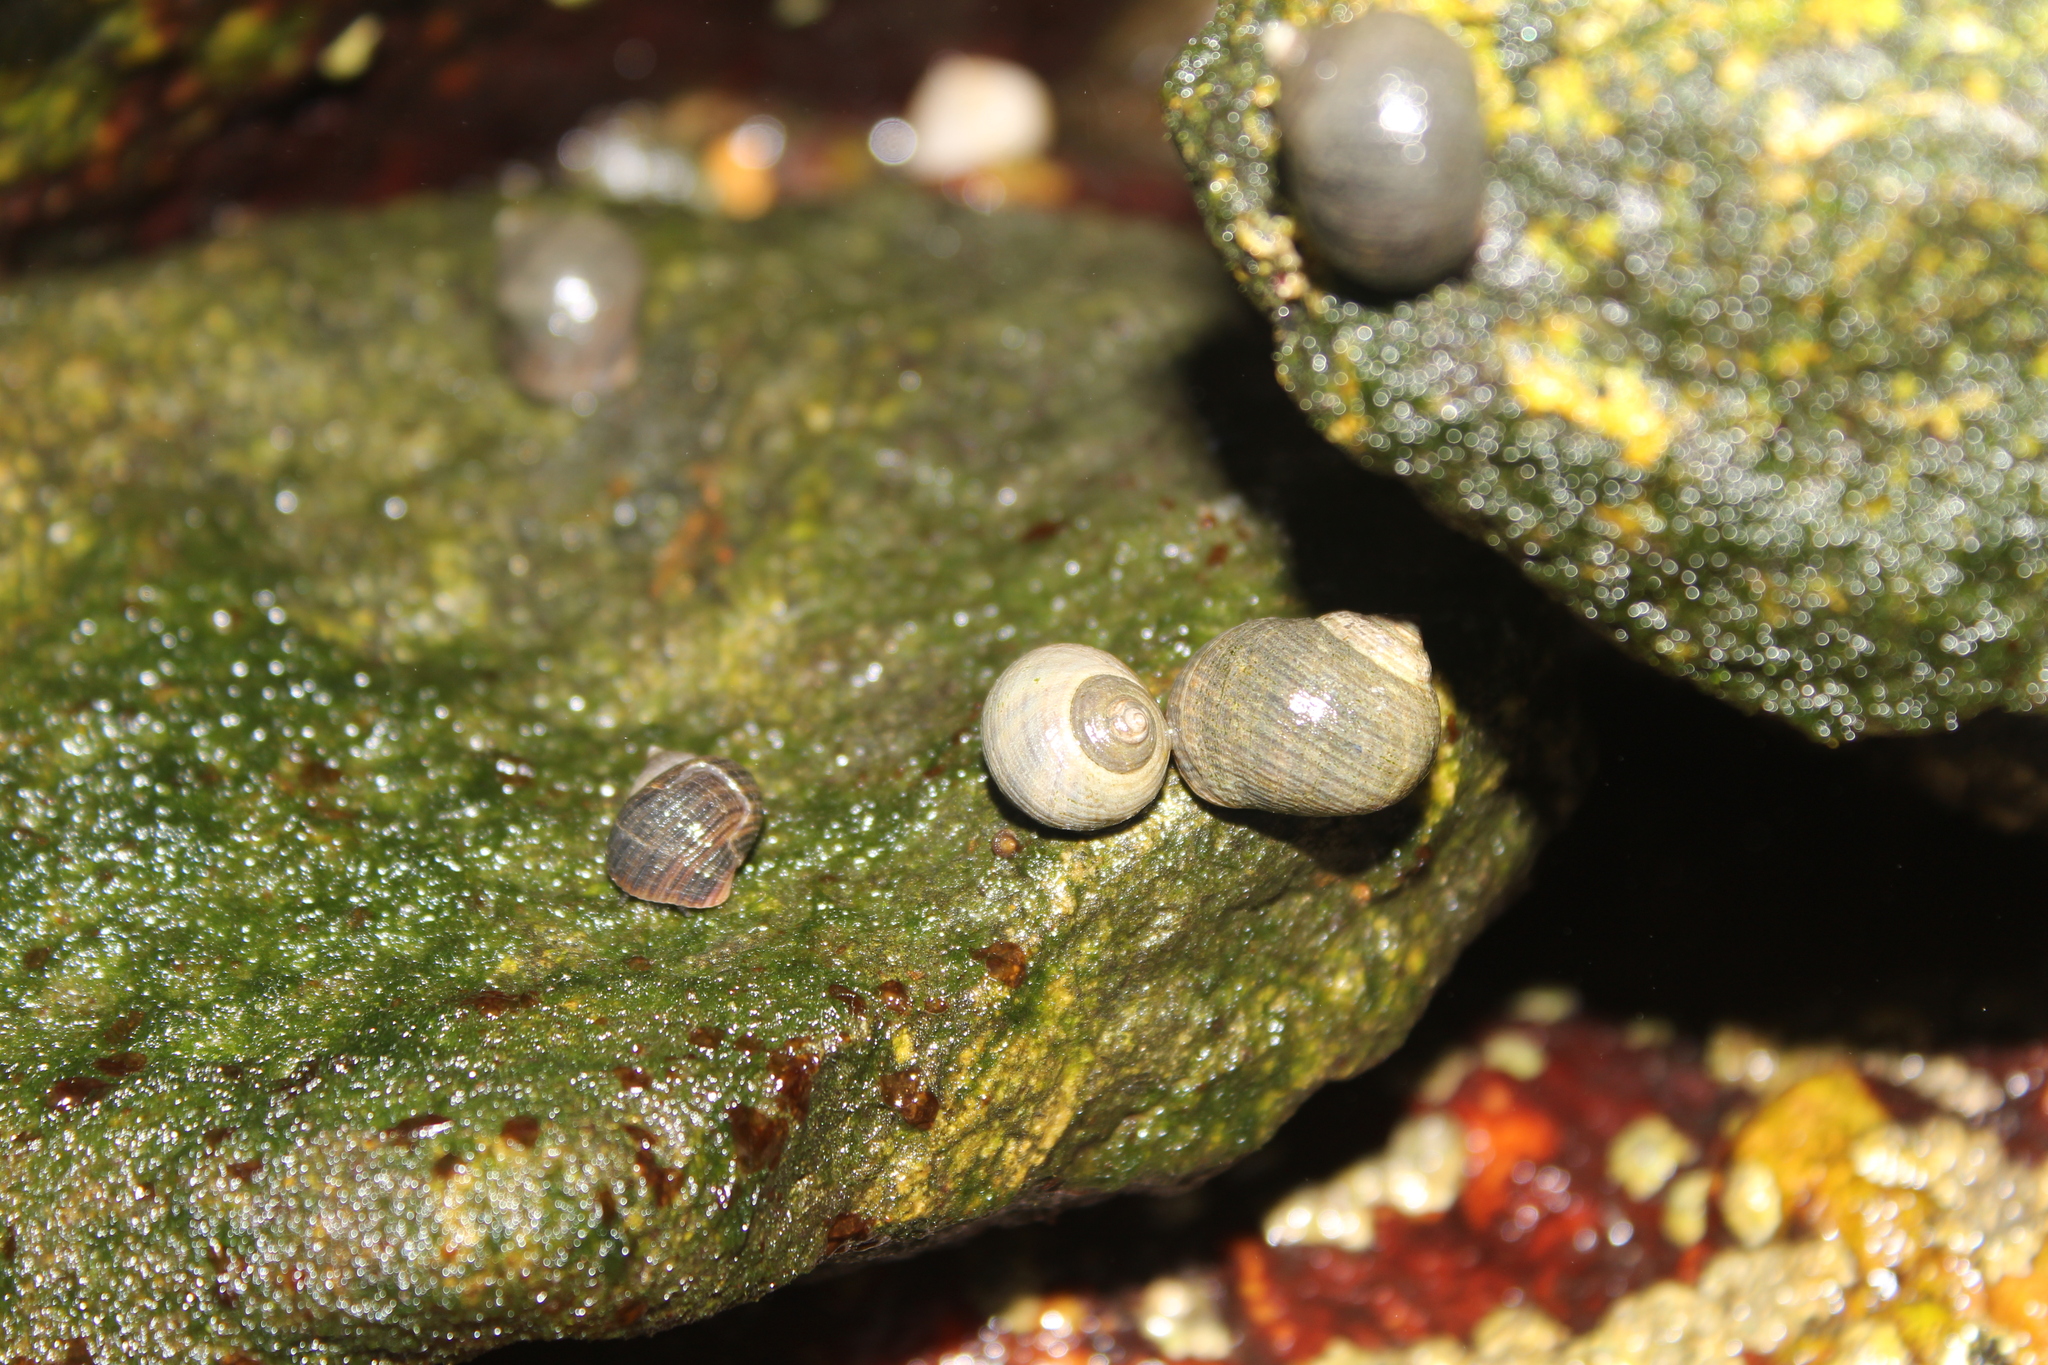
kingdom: Animalia
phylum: Mollusca
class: Gastropoda
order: Littorinimorpha
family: Littorinidae
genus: Littorina
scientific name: Littorina littorea
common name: Common periwinkle
